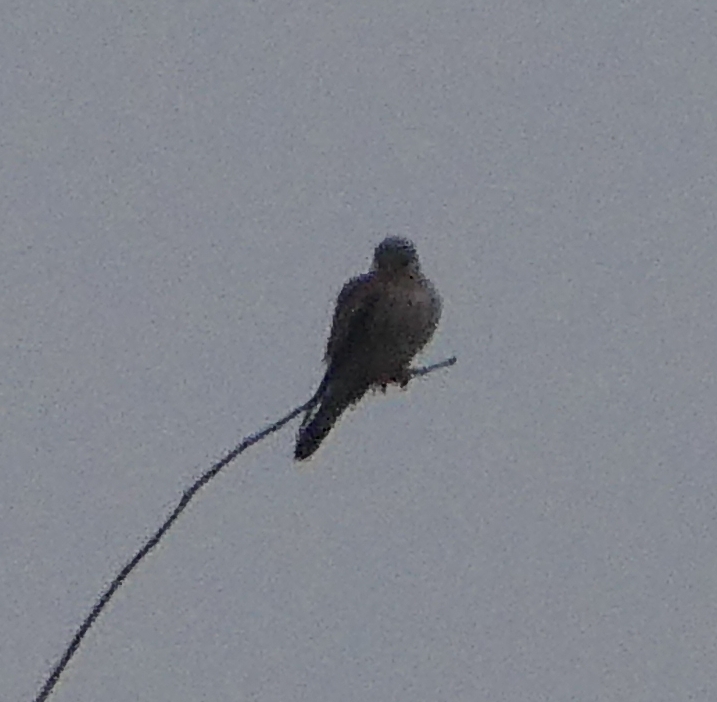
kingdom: Animalia
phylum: Chordata
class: Aves
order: Falconiformes
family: Falconidae
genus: Falco
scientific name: Falco tinnunculus
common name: Common kestrel
